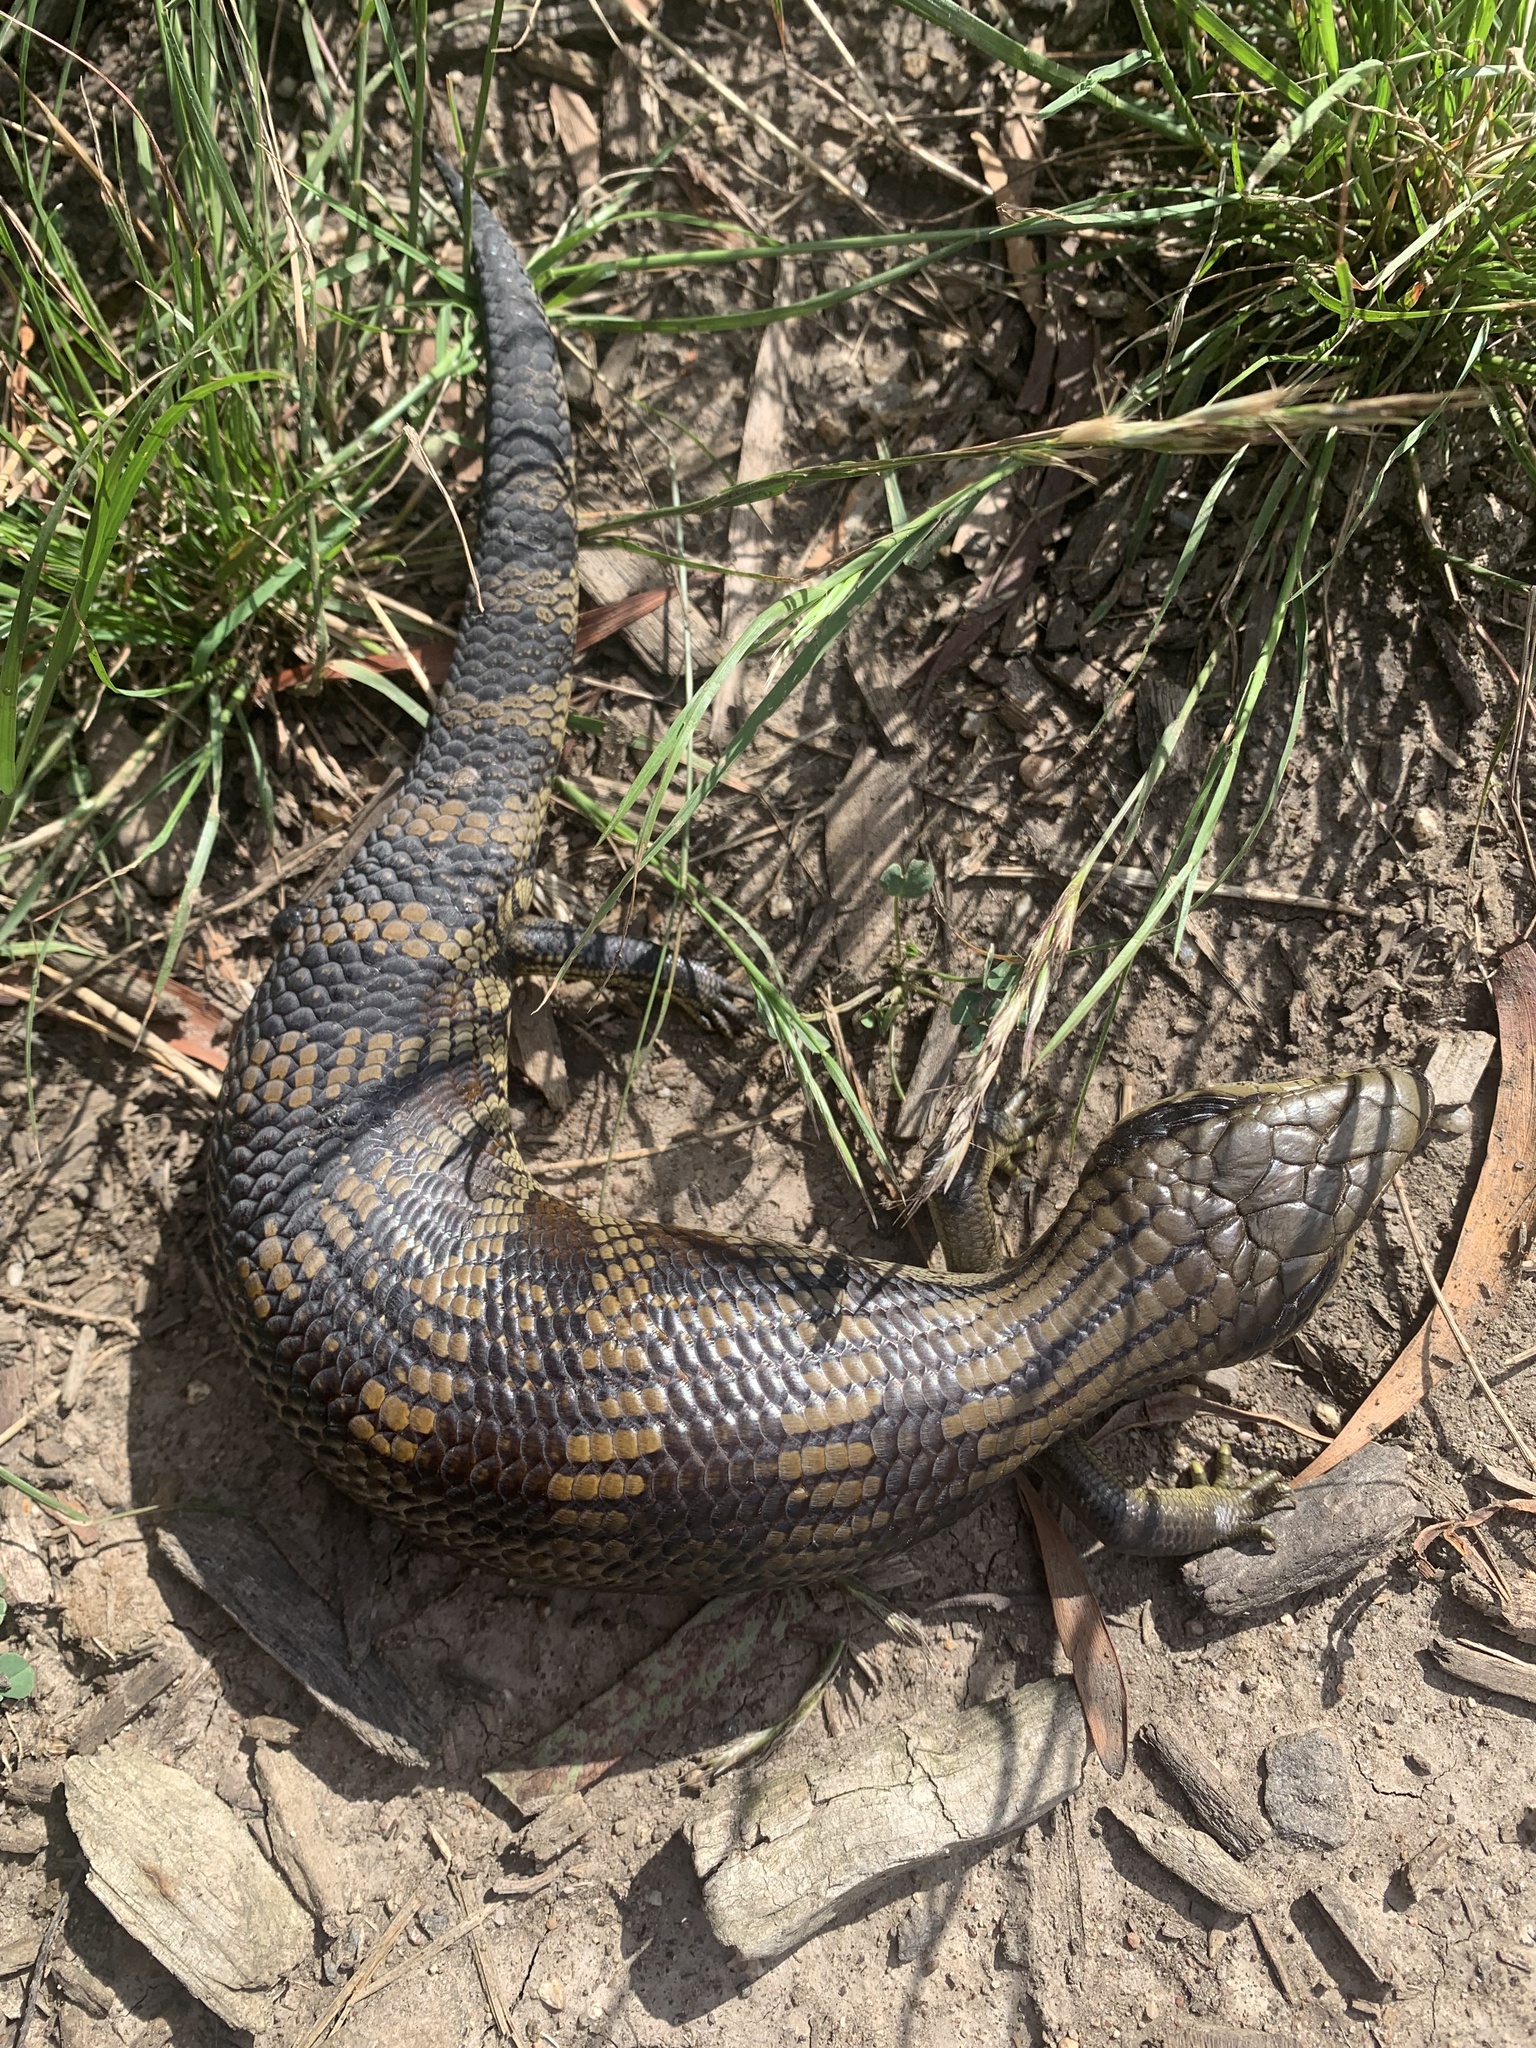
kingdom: Animalia
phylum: Chordata
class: Squamata
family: Scincidae
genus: Tiliqua
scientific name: Tiliqua scincoides
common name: Common bluetongue
